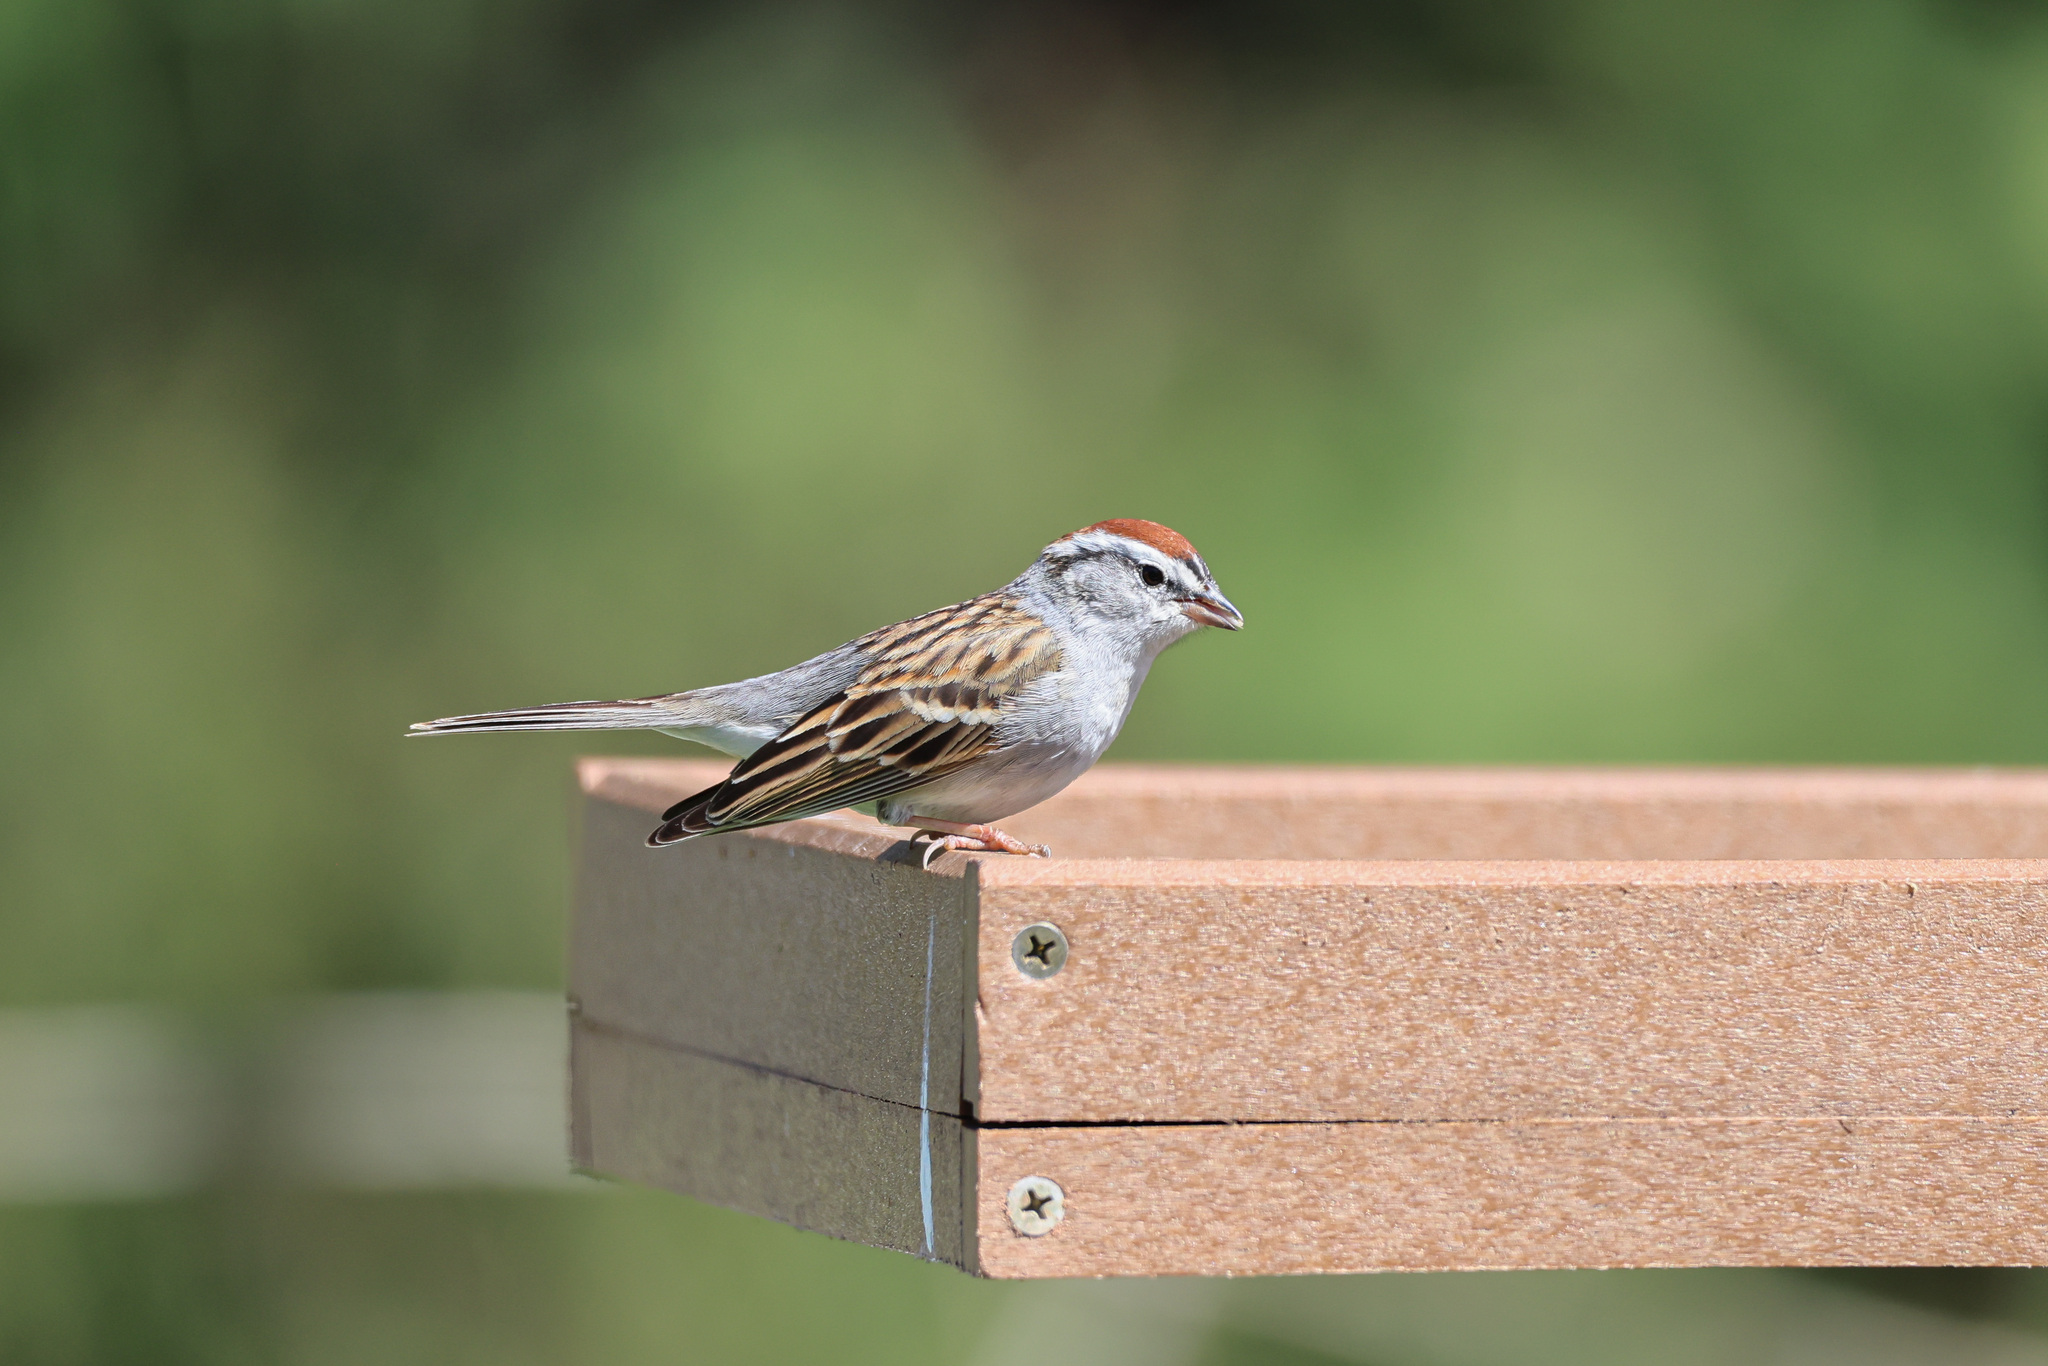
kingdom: Animalia
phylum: Chordata
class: Aves
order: Passeriformes
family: Passerellidae
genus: Spizella
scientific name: Spizella passerina
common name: Chipping sparrow
